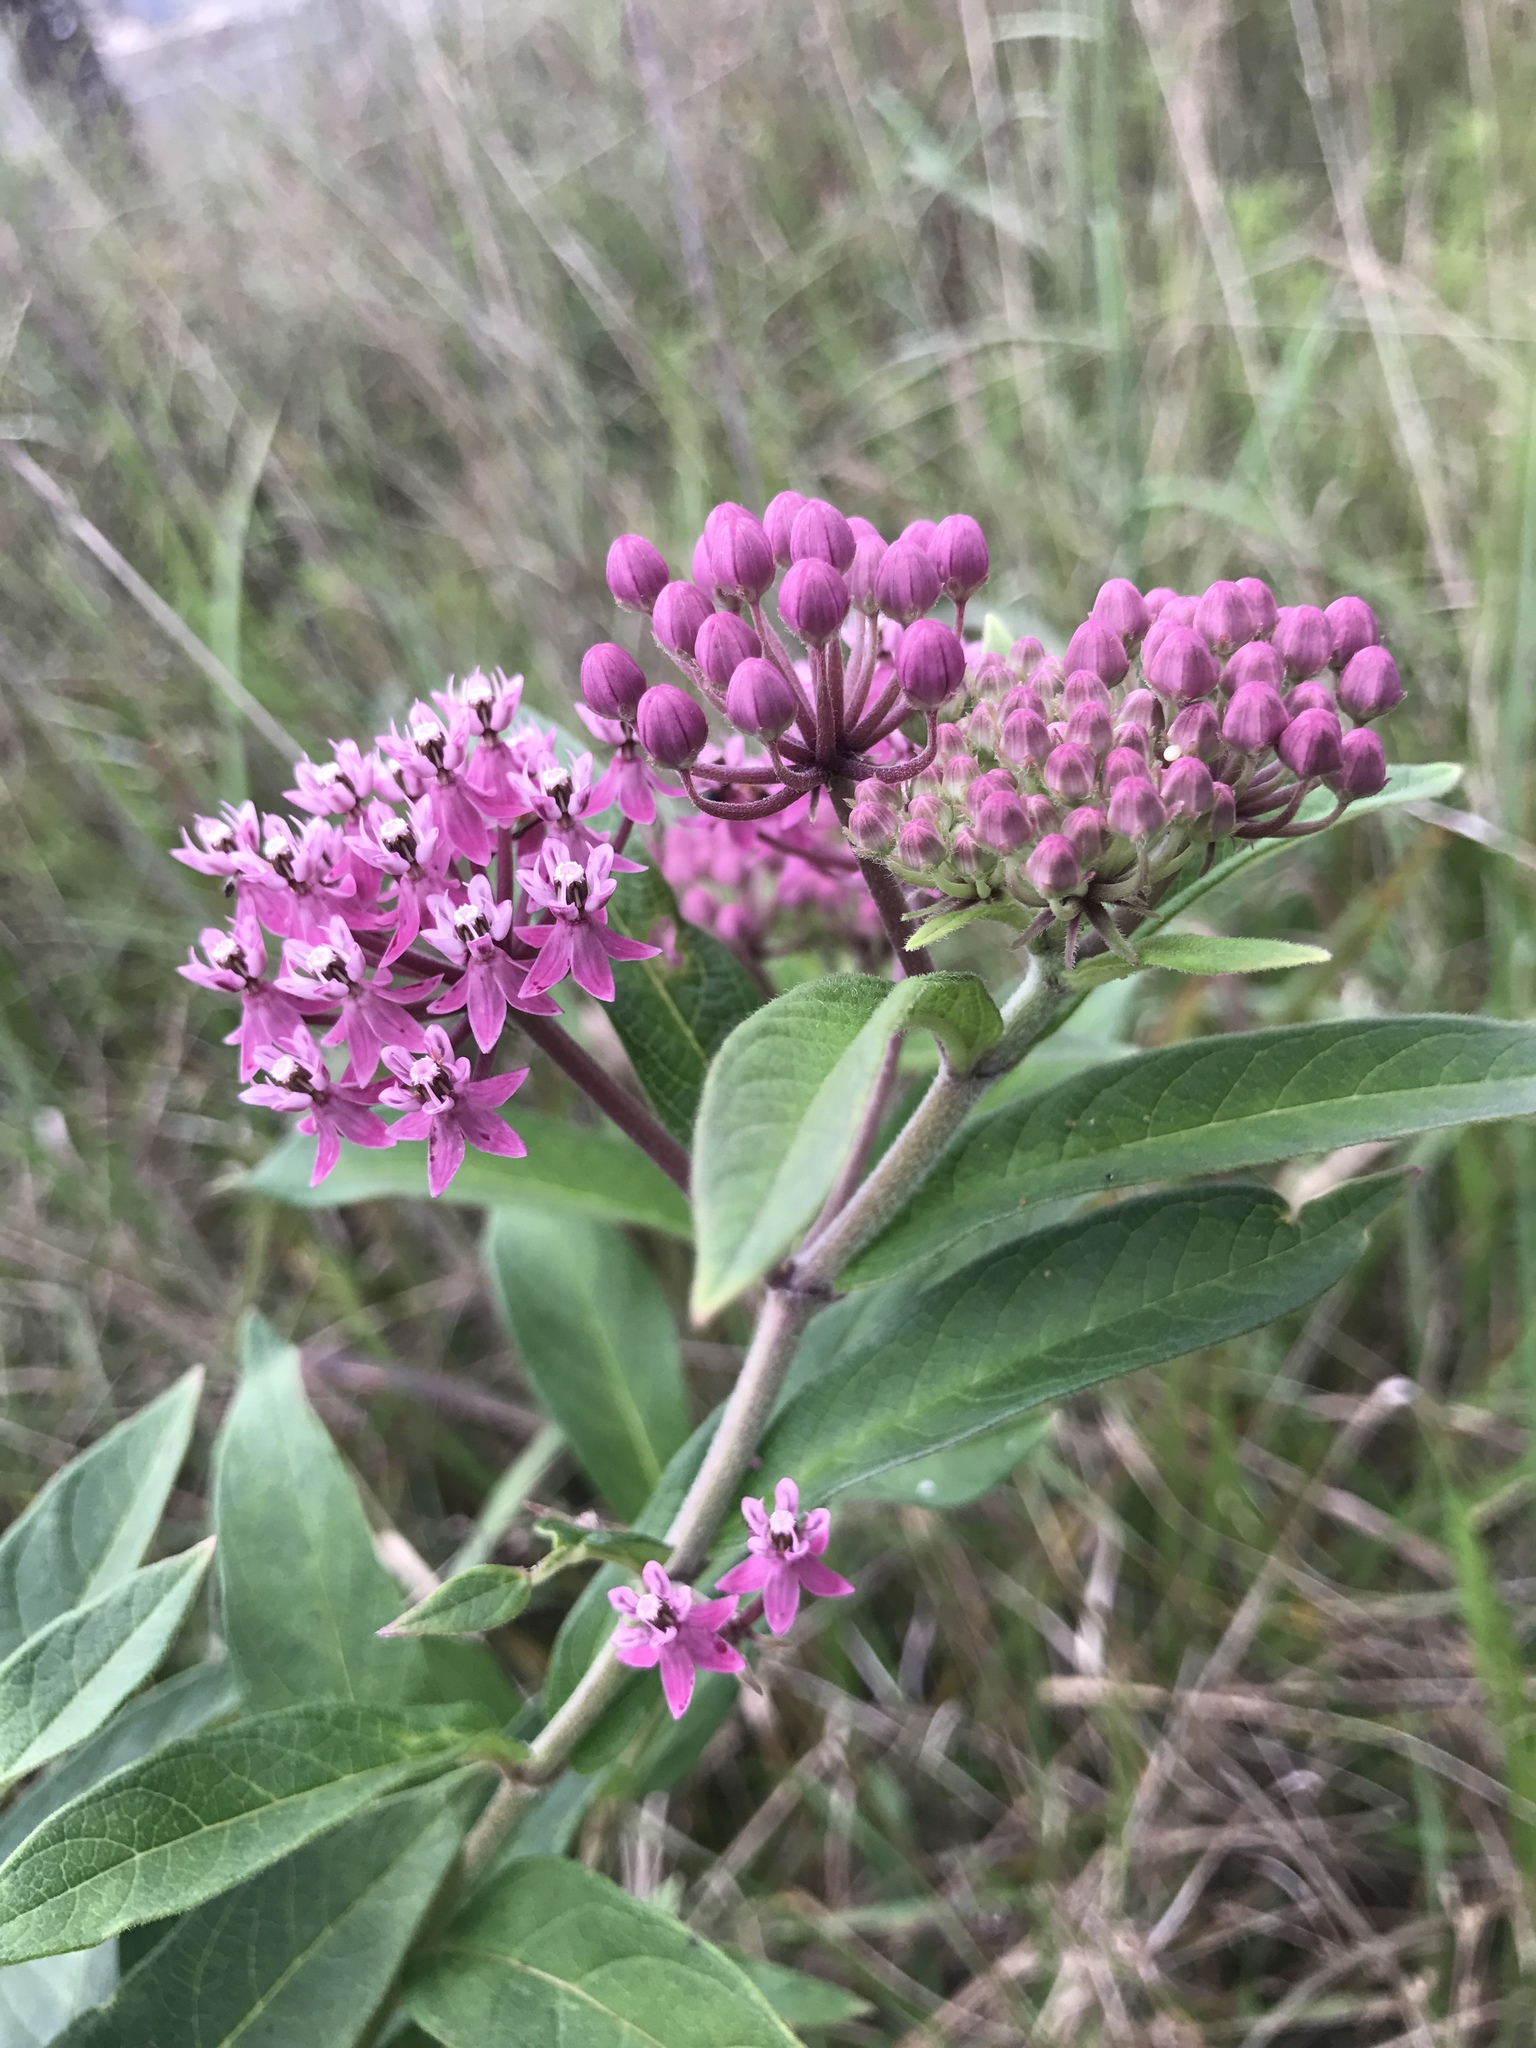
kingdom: Plantae
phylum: Tracheophyta
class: Magnoliopsida
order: Gentianales
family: Apocynaceae
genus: Asclepias
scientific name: Asclepias incarnata
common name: Swamp milkweed
